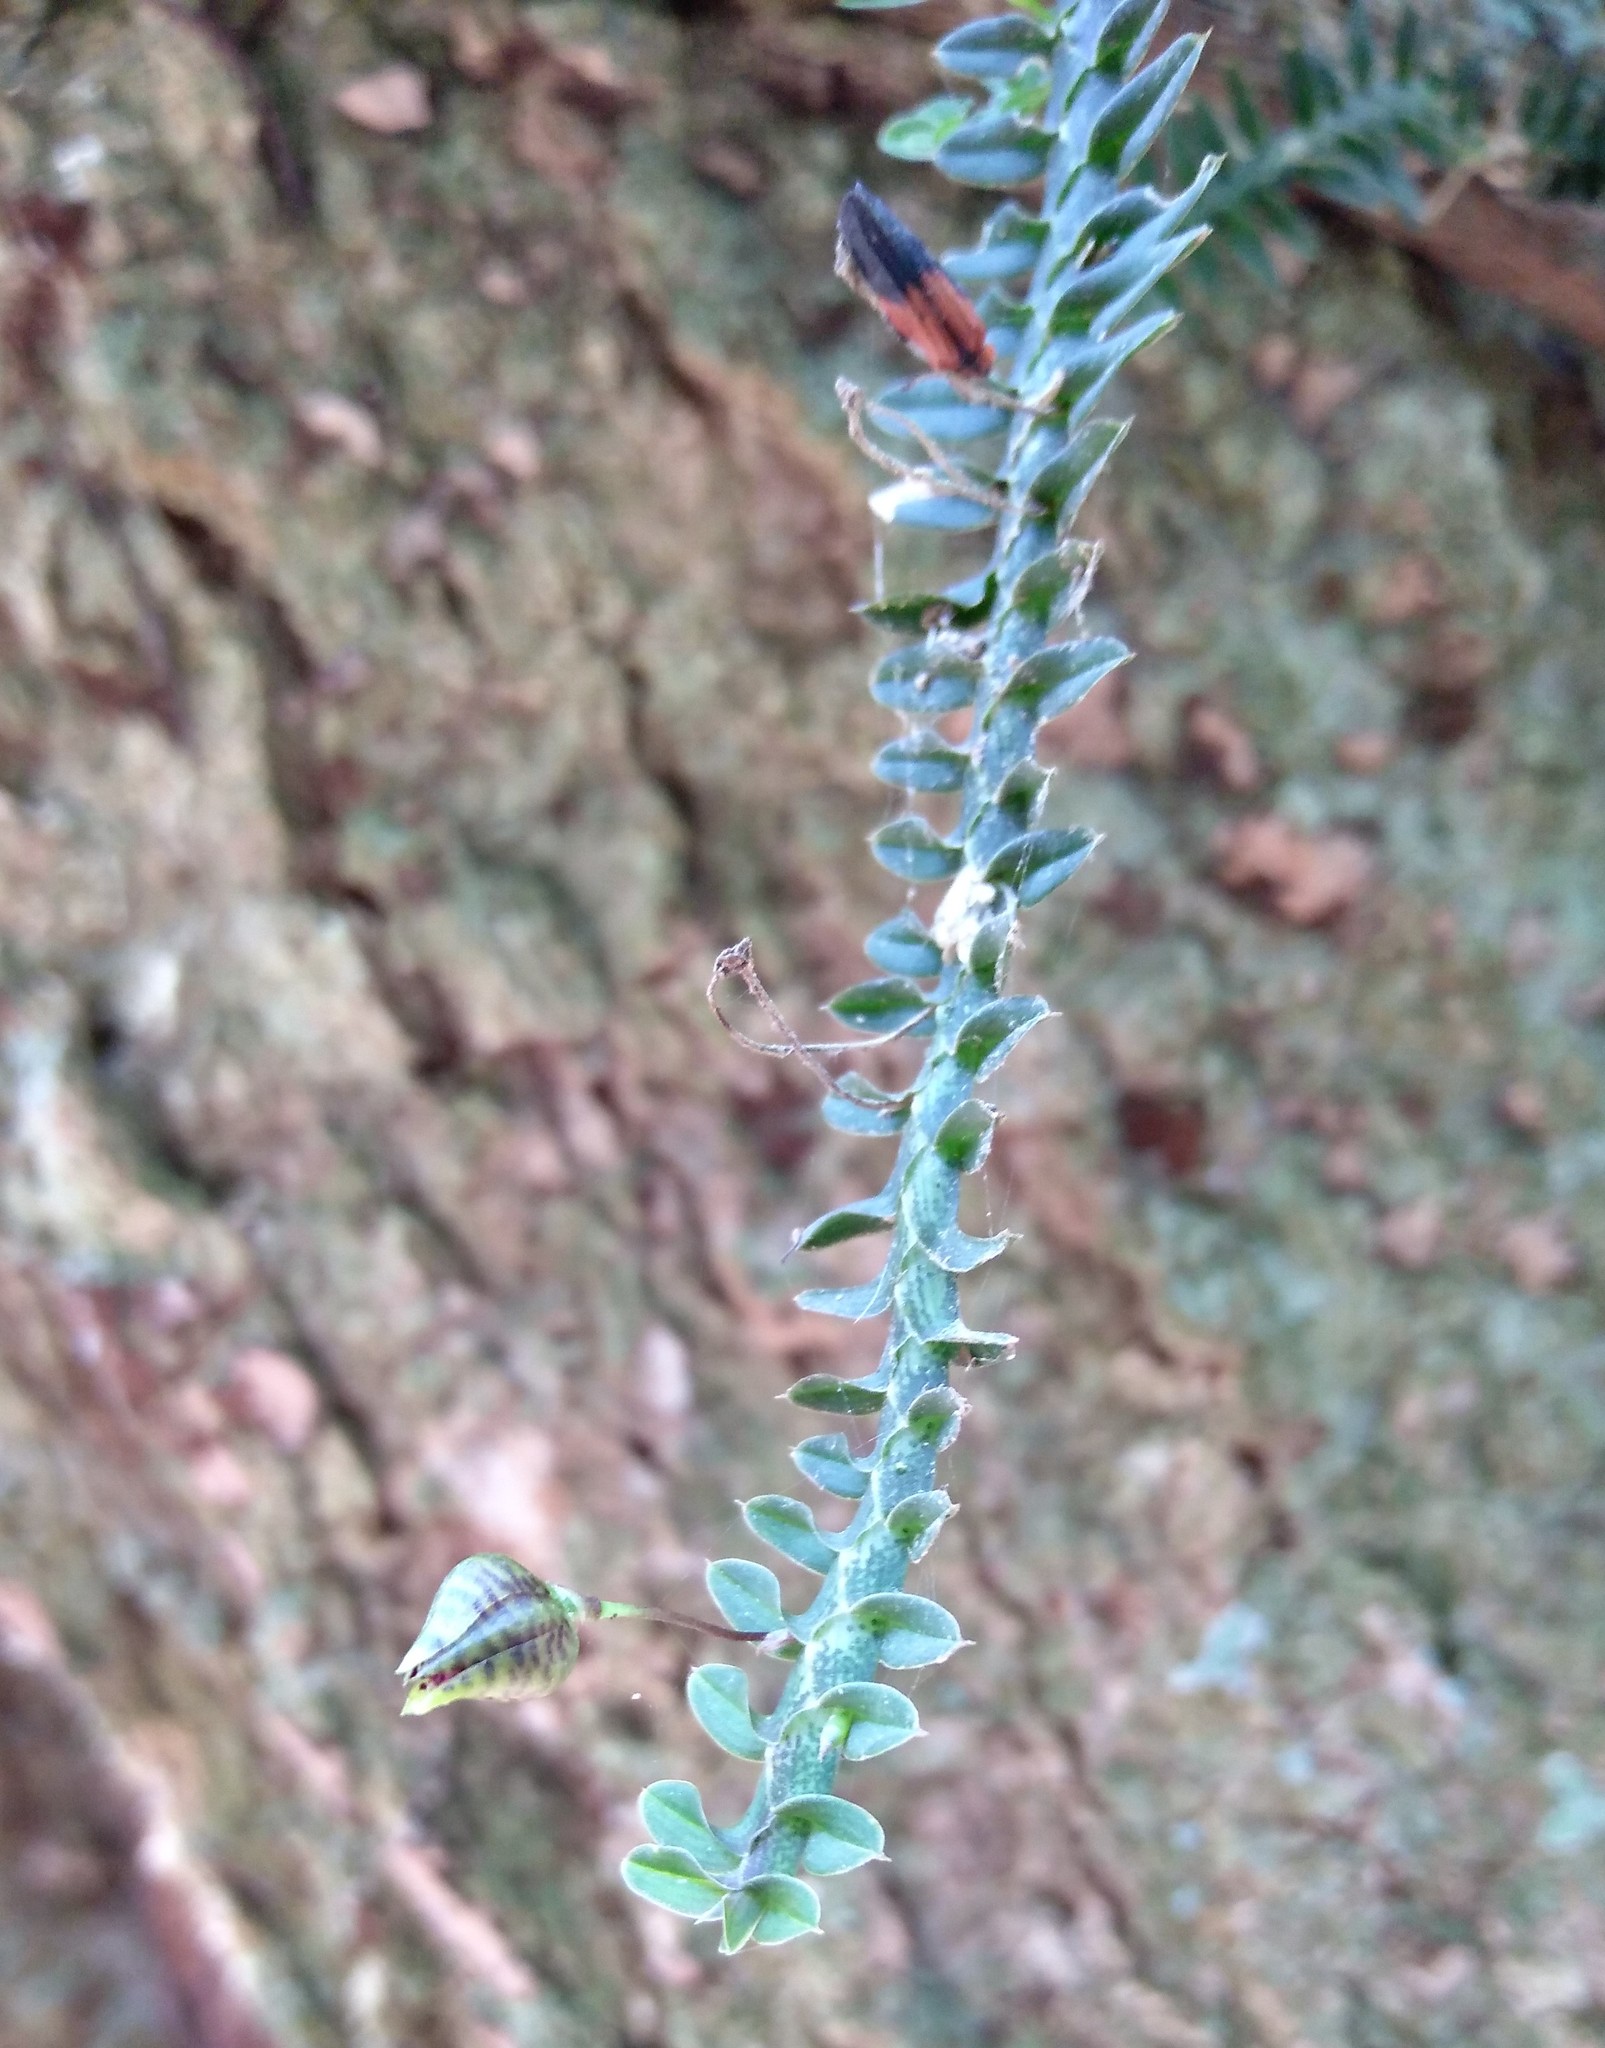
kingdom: Plantae
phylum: Tracheophyta
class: Liliopsida
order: Asparagales
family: Orchidaceae
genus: Dichaea
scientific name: Dichaea neglecta
